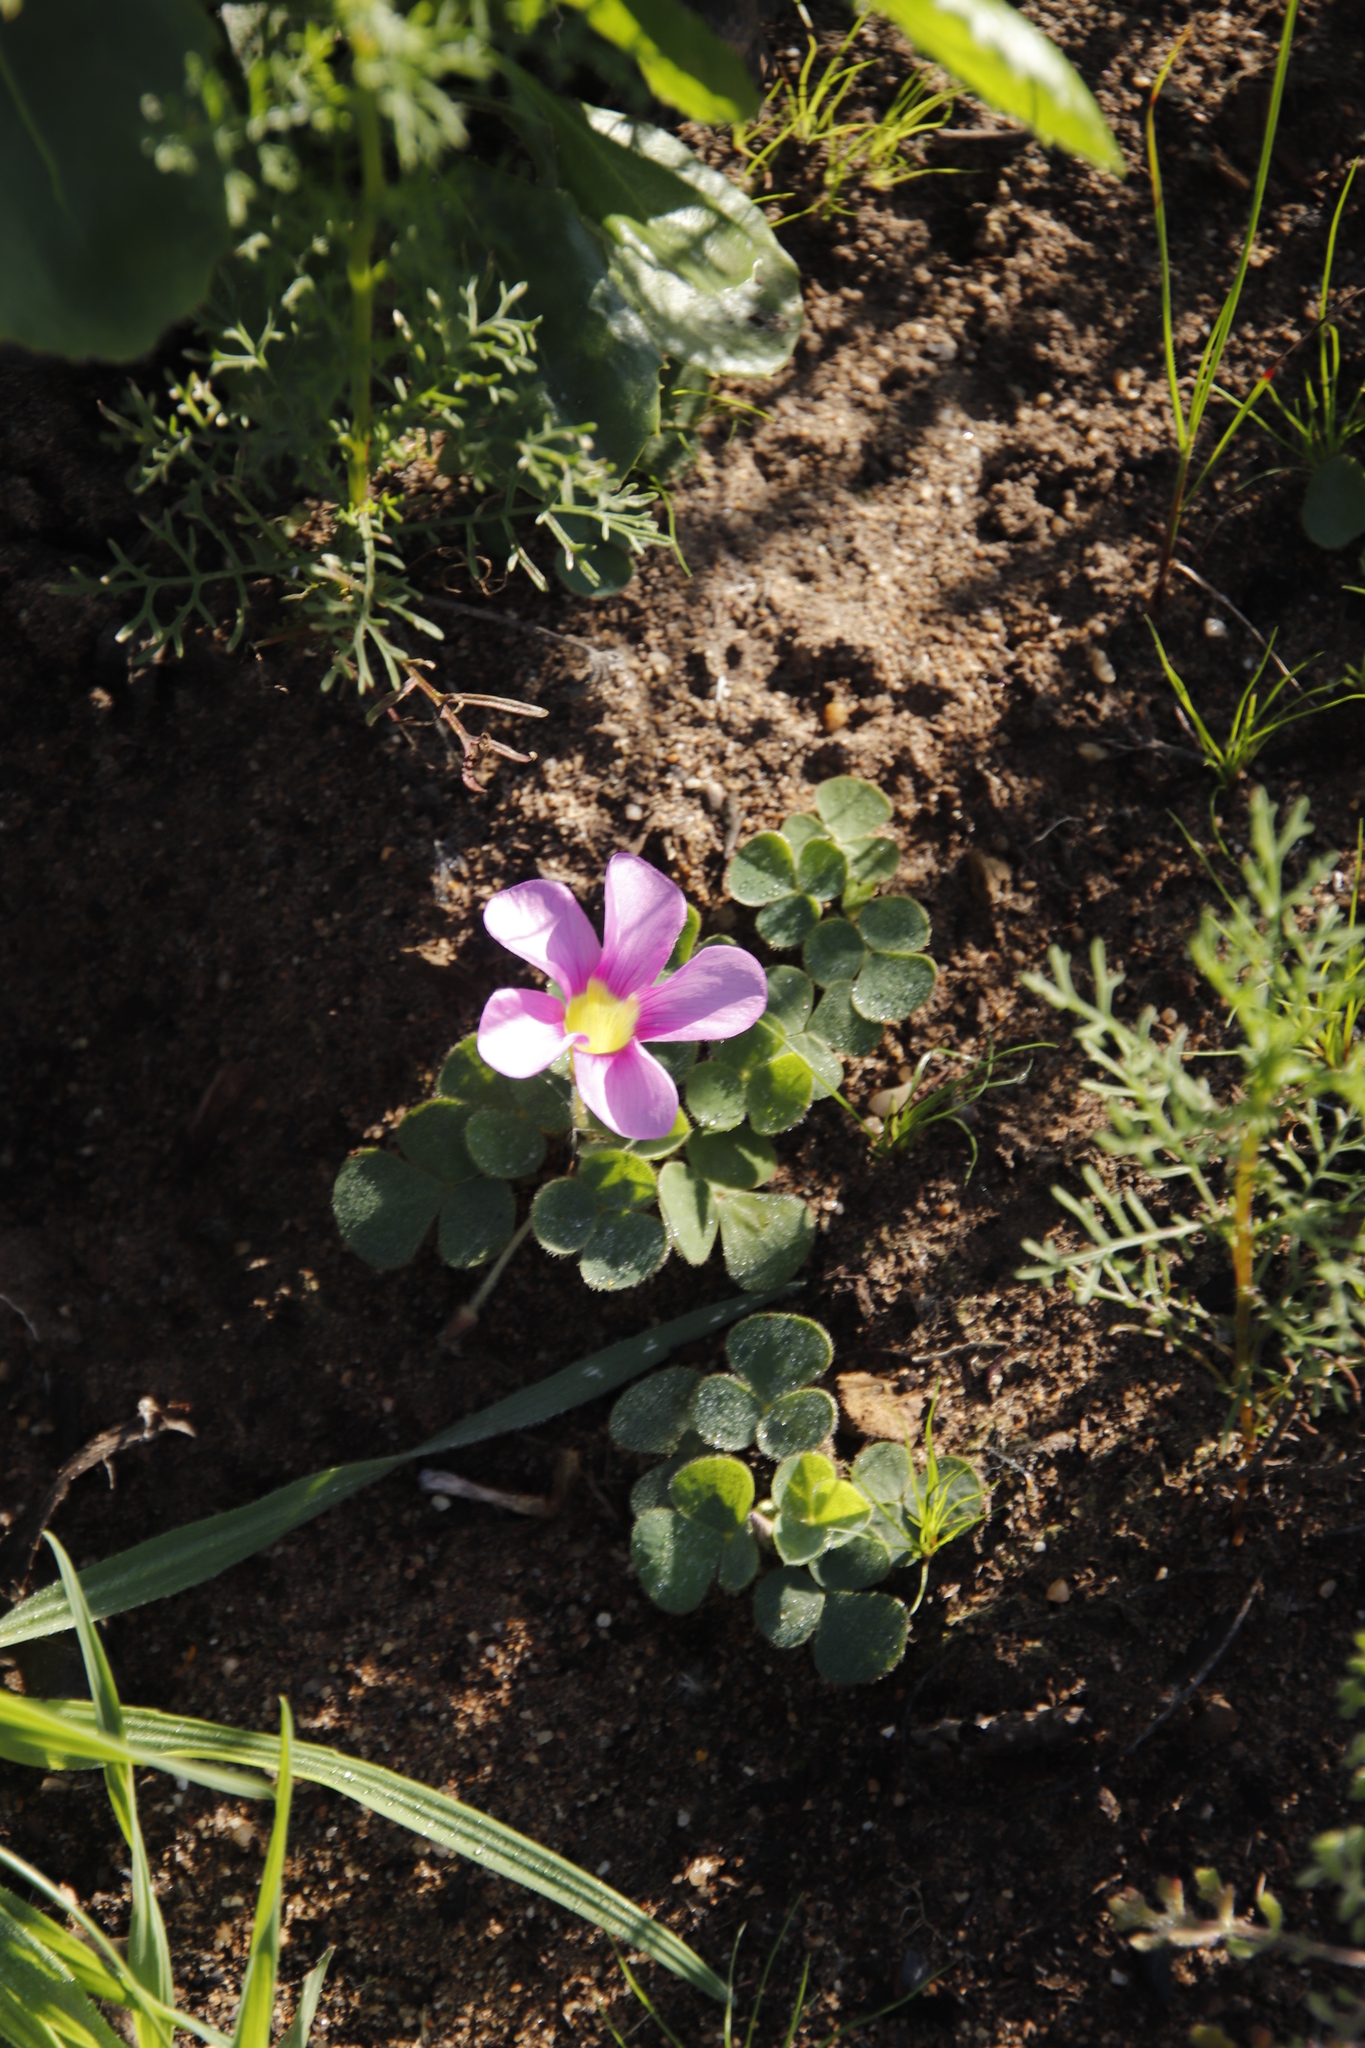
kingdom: Plantae
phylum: Tracheophyta
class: Magnoliopsida
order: Oxalidales
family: Oxalidaceae
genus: Oxalis
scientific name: Oxalis purpurea
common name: Purple woodsorrel
